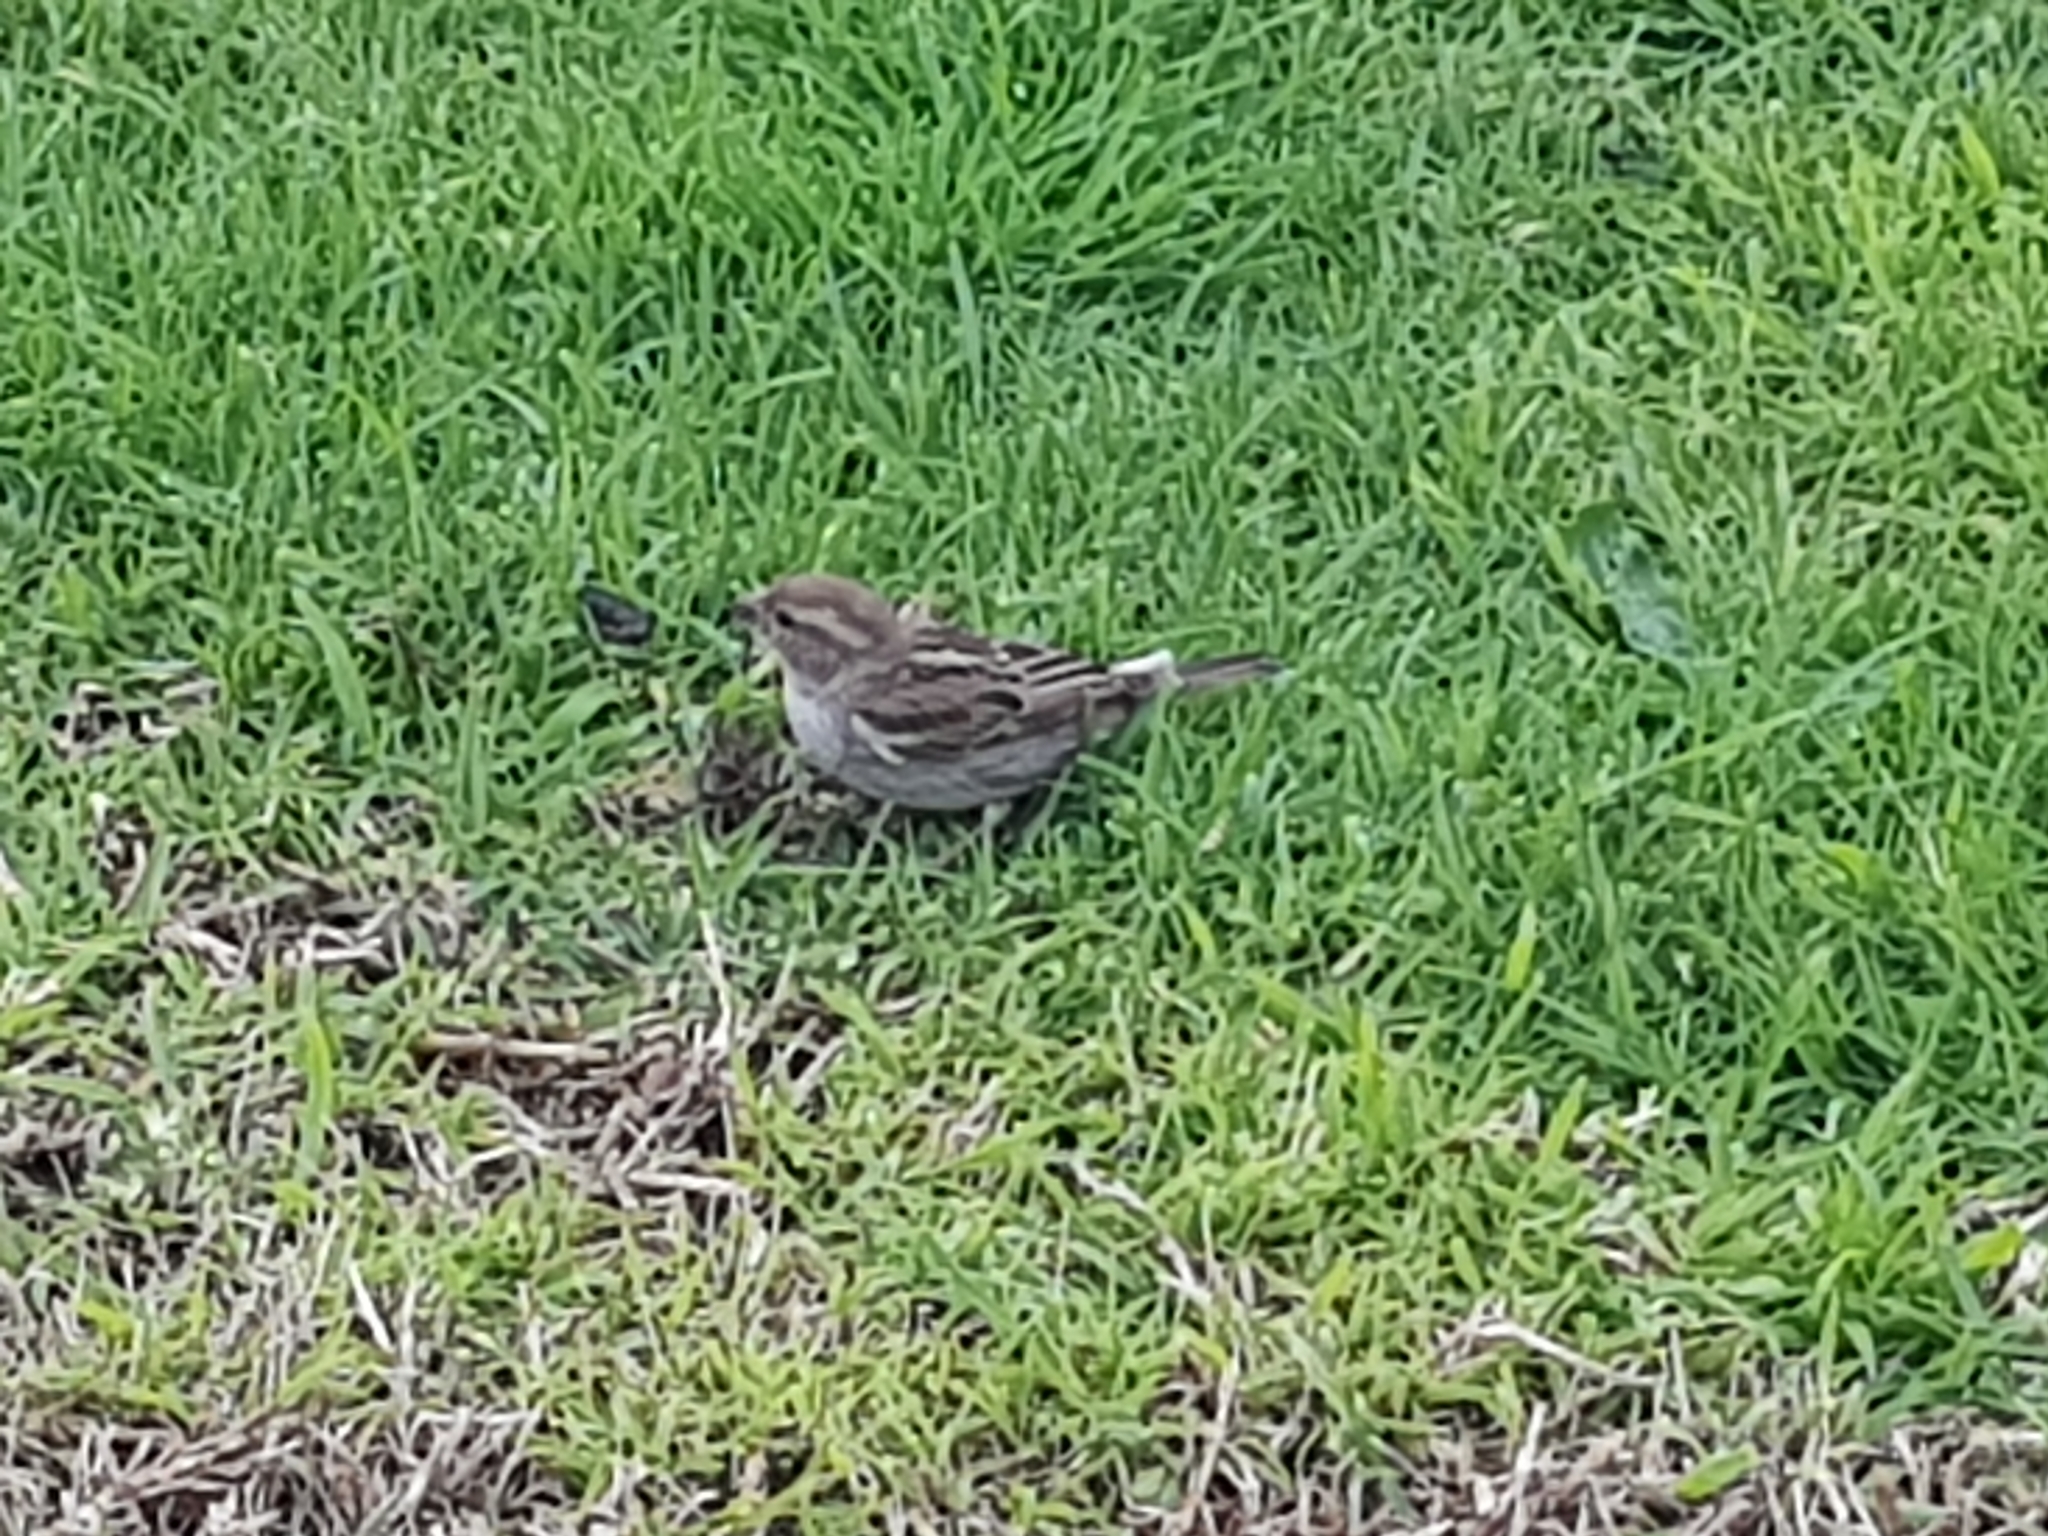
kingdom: Animalia
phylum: Chordata
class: Aves
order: Passeriformes
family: Passeridae
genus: Passer
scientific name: Passer domesticus
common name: House sparrow
